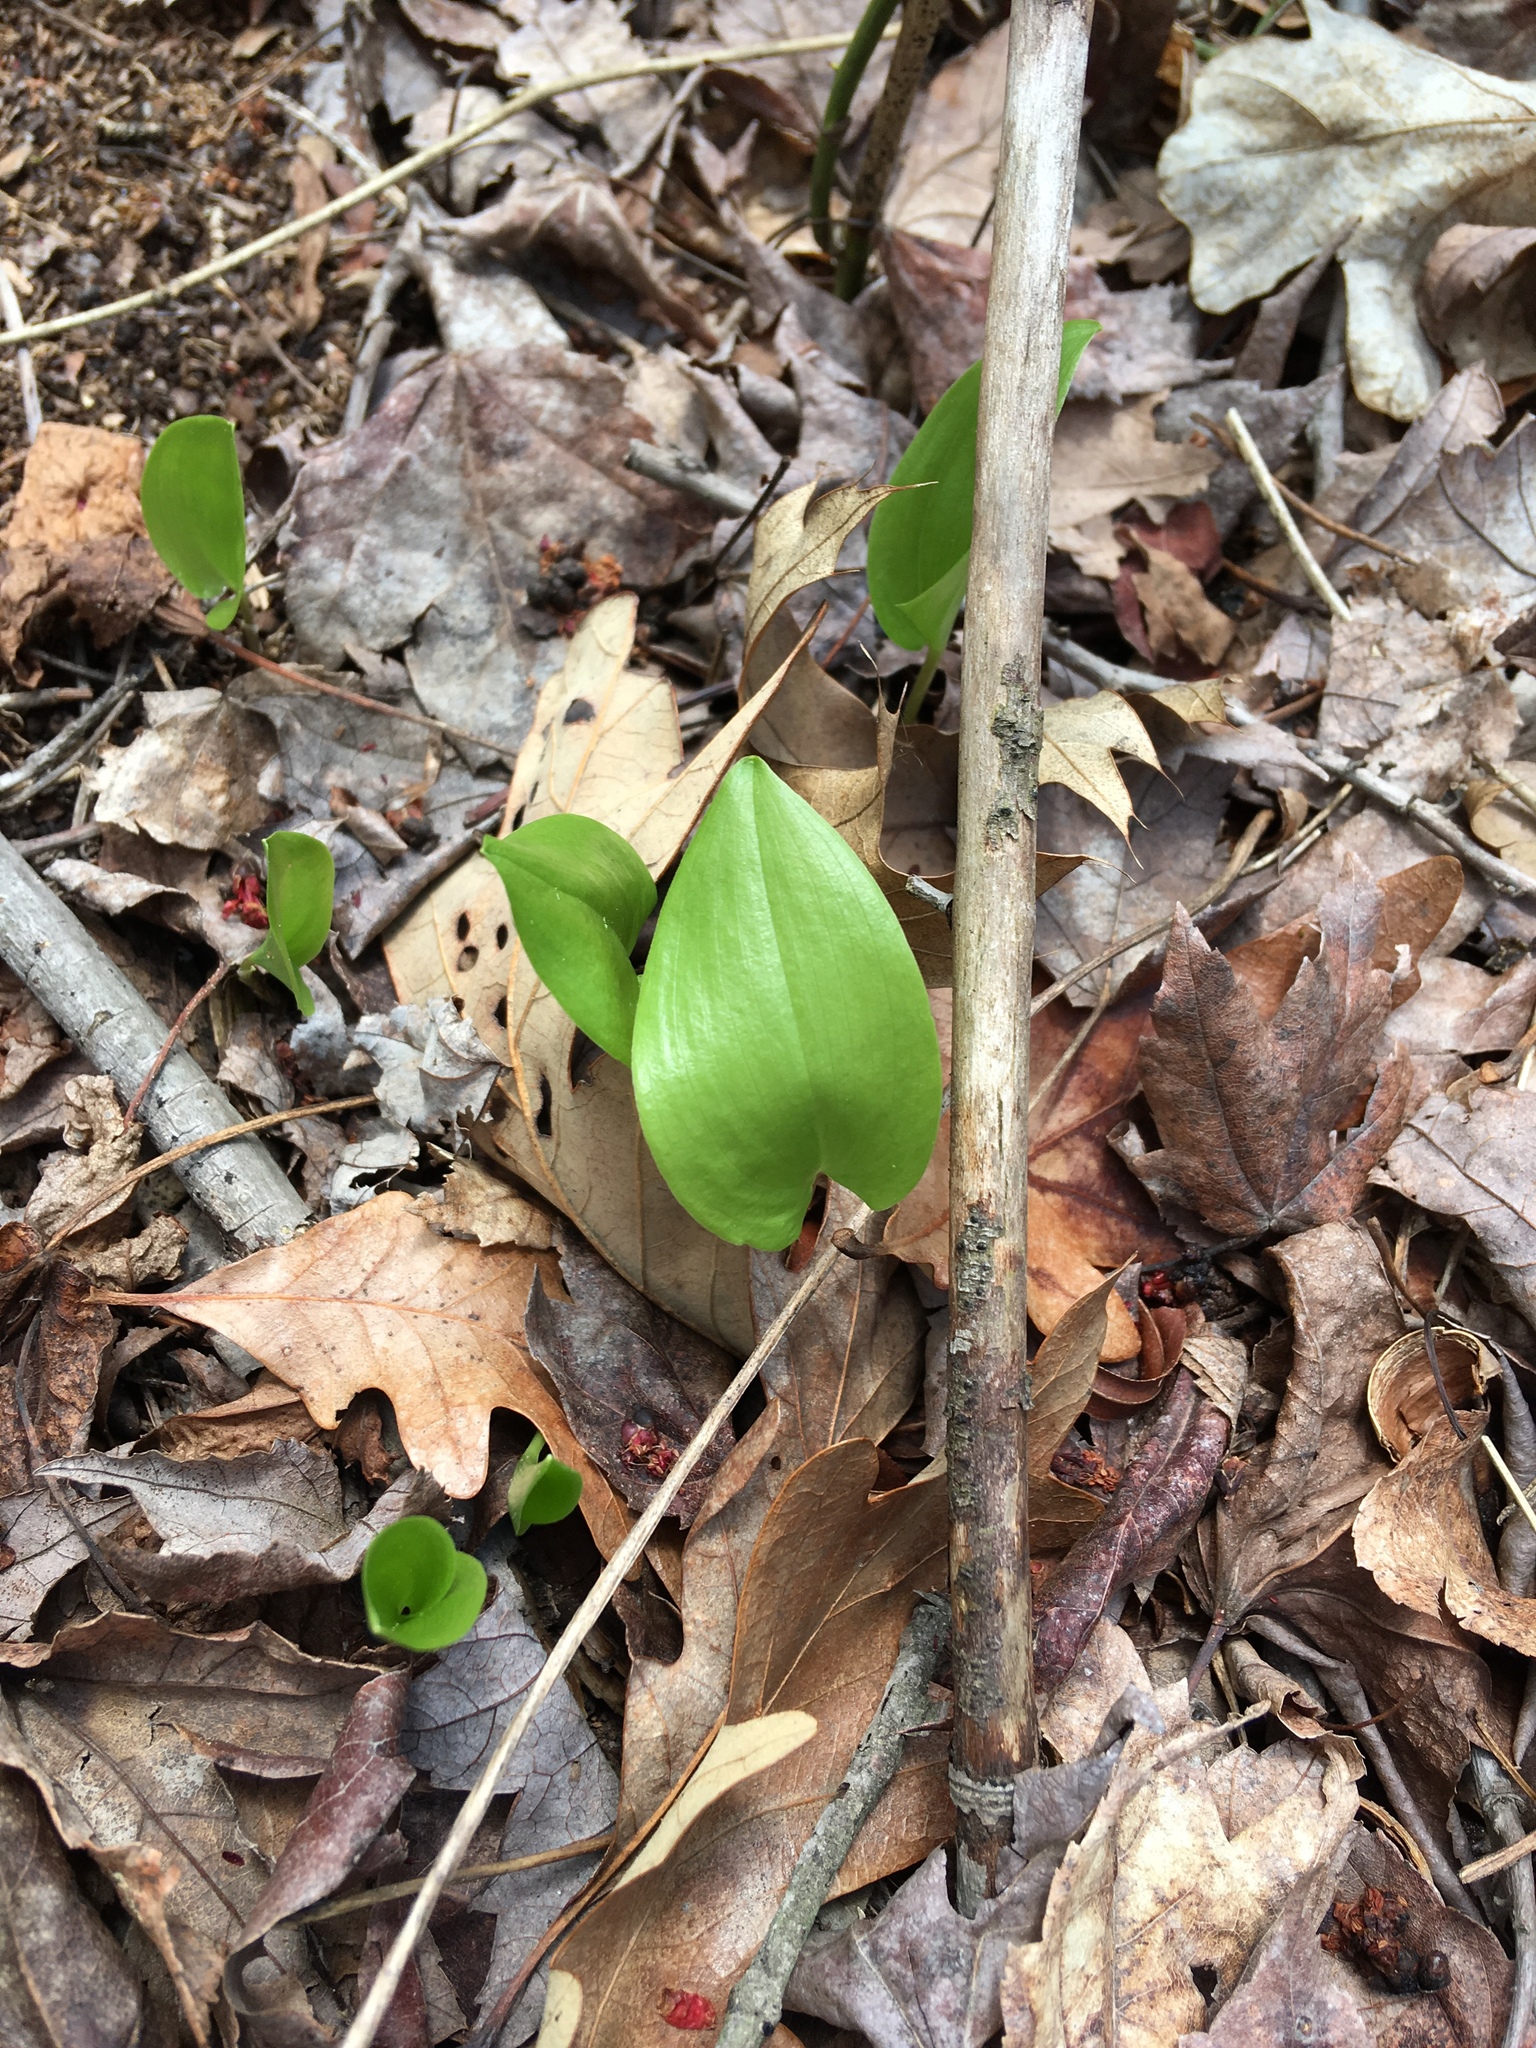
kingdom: Plantae
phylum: Tracheophyta
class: Liliopsida
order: Asparagales
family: Asparagaceae
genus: Maianthemum
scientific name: Maianthemum canadense
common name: False lily-of-the-valley
